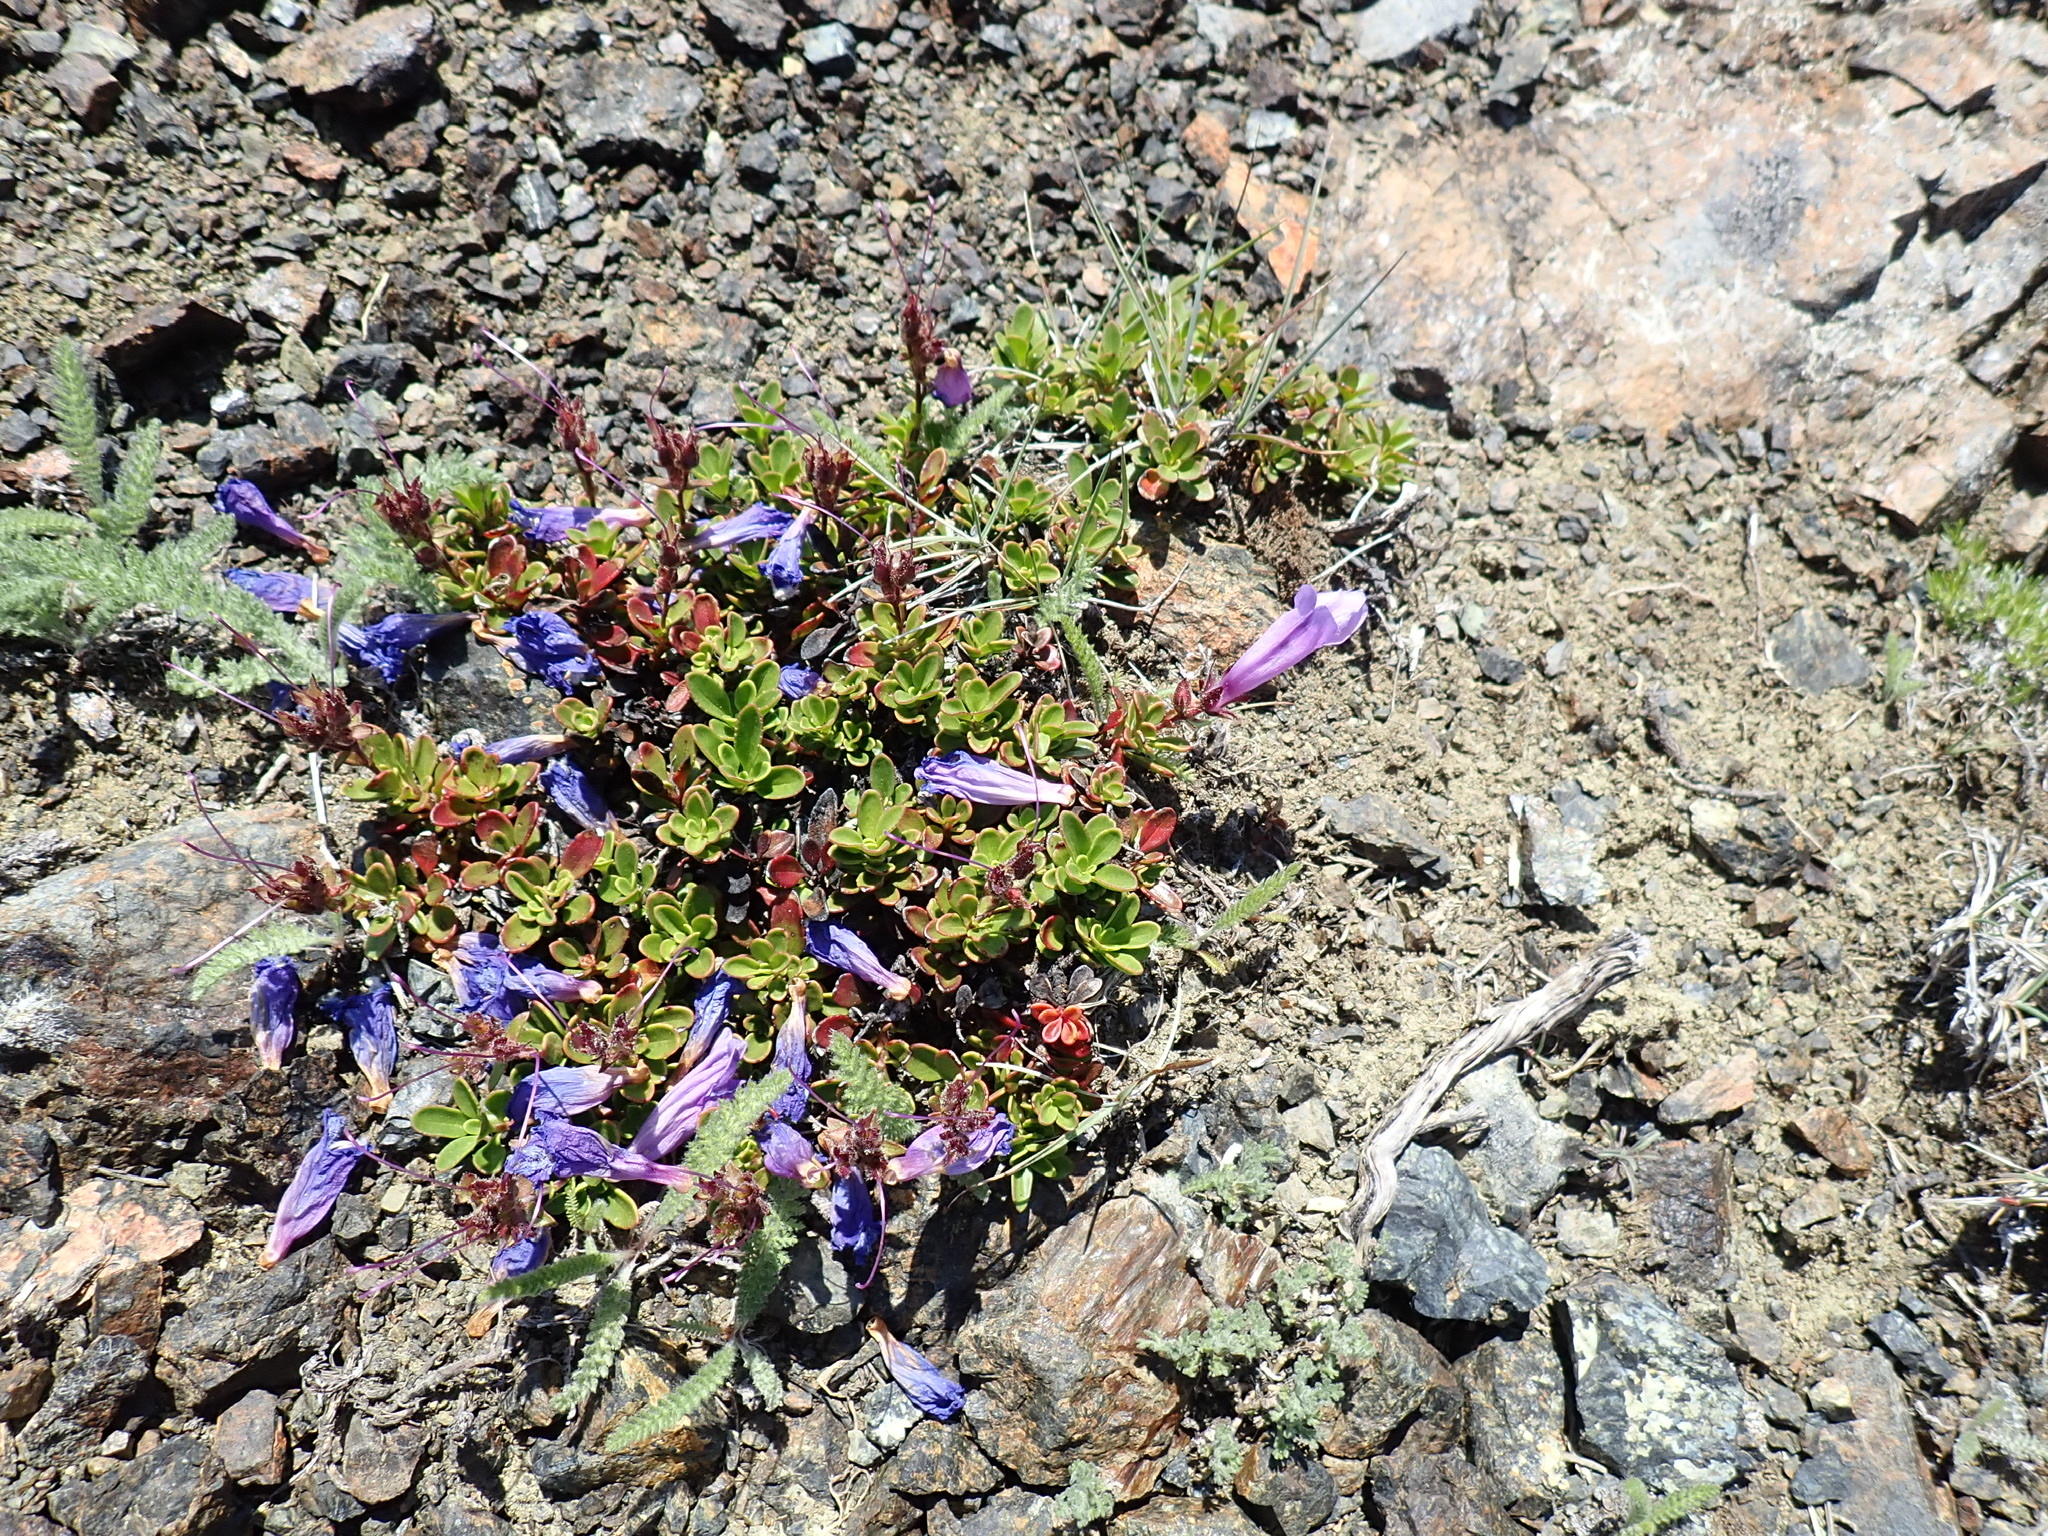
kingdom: Plantae
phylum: Tracheophyta
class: Magnoliopsida
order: Lamiales
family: Plantaginaceae
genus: Penstemon
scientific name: Penstemon davidsonii
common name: Davidson's penstemon
